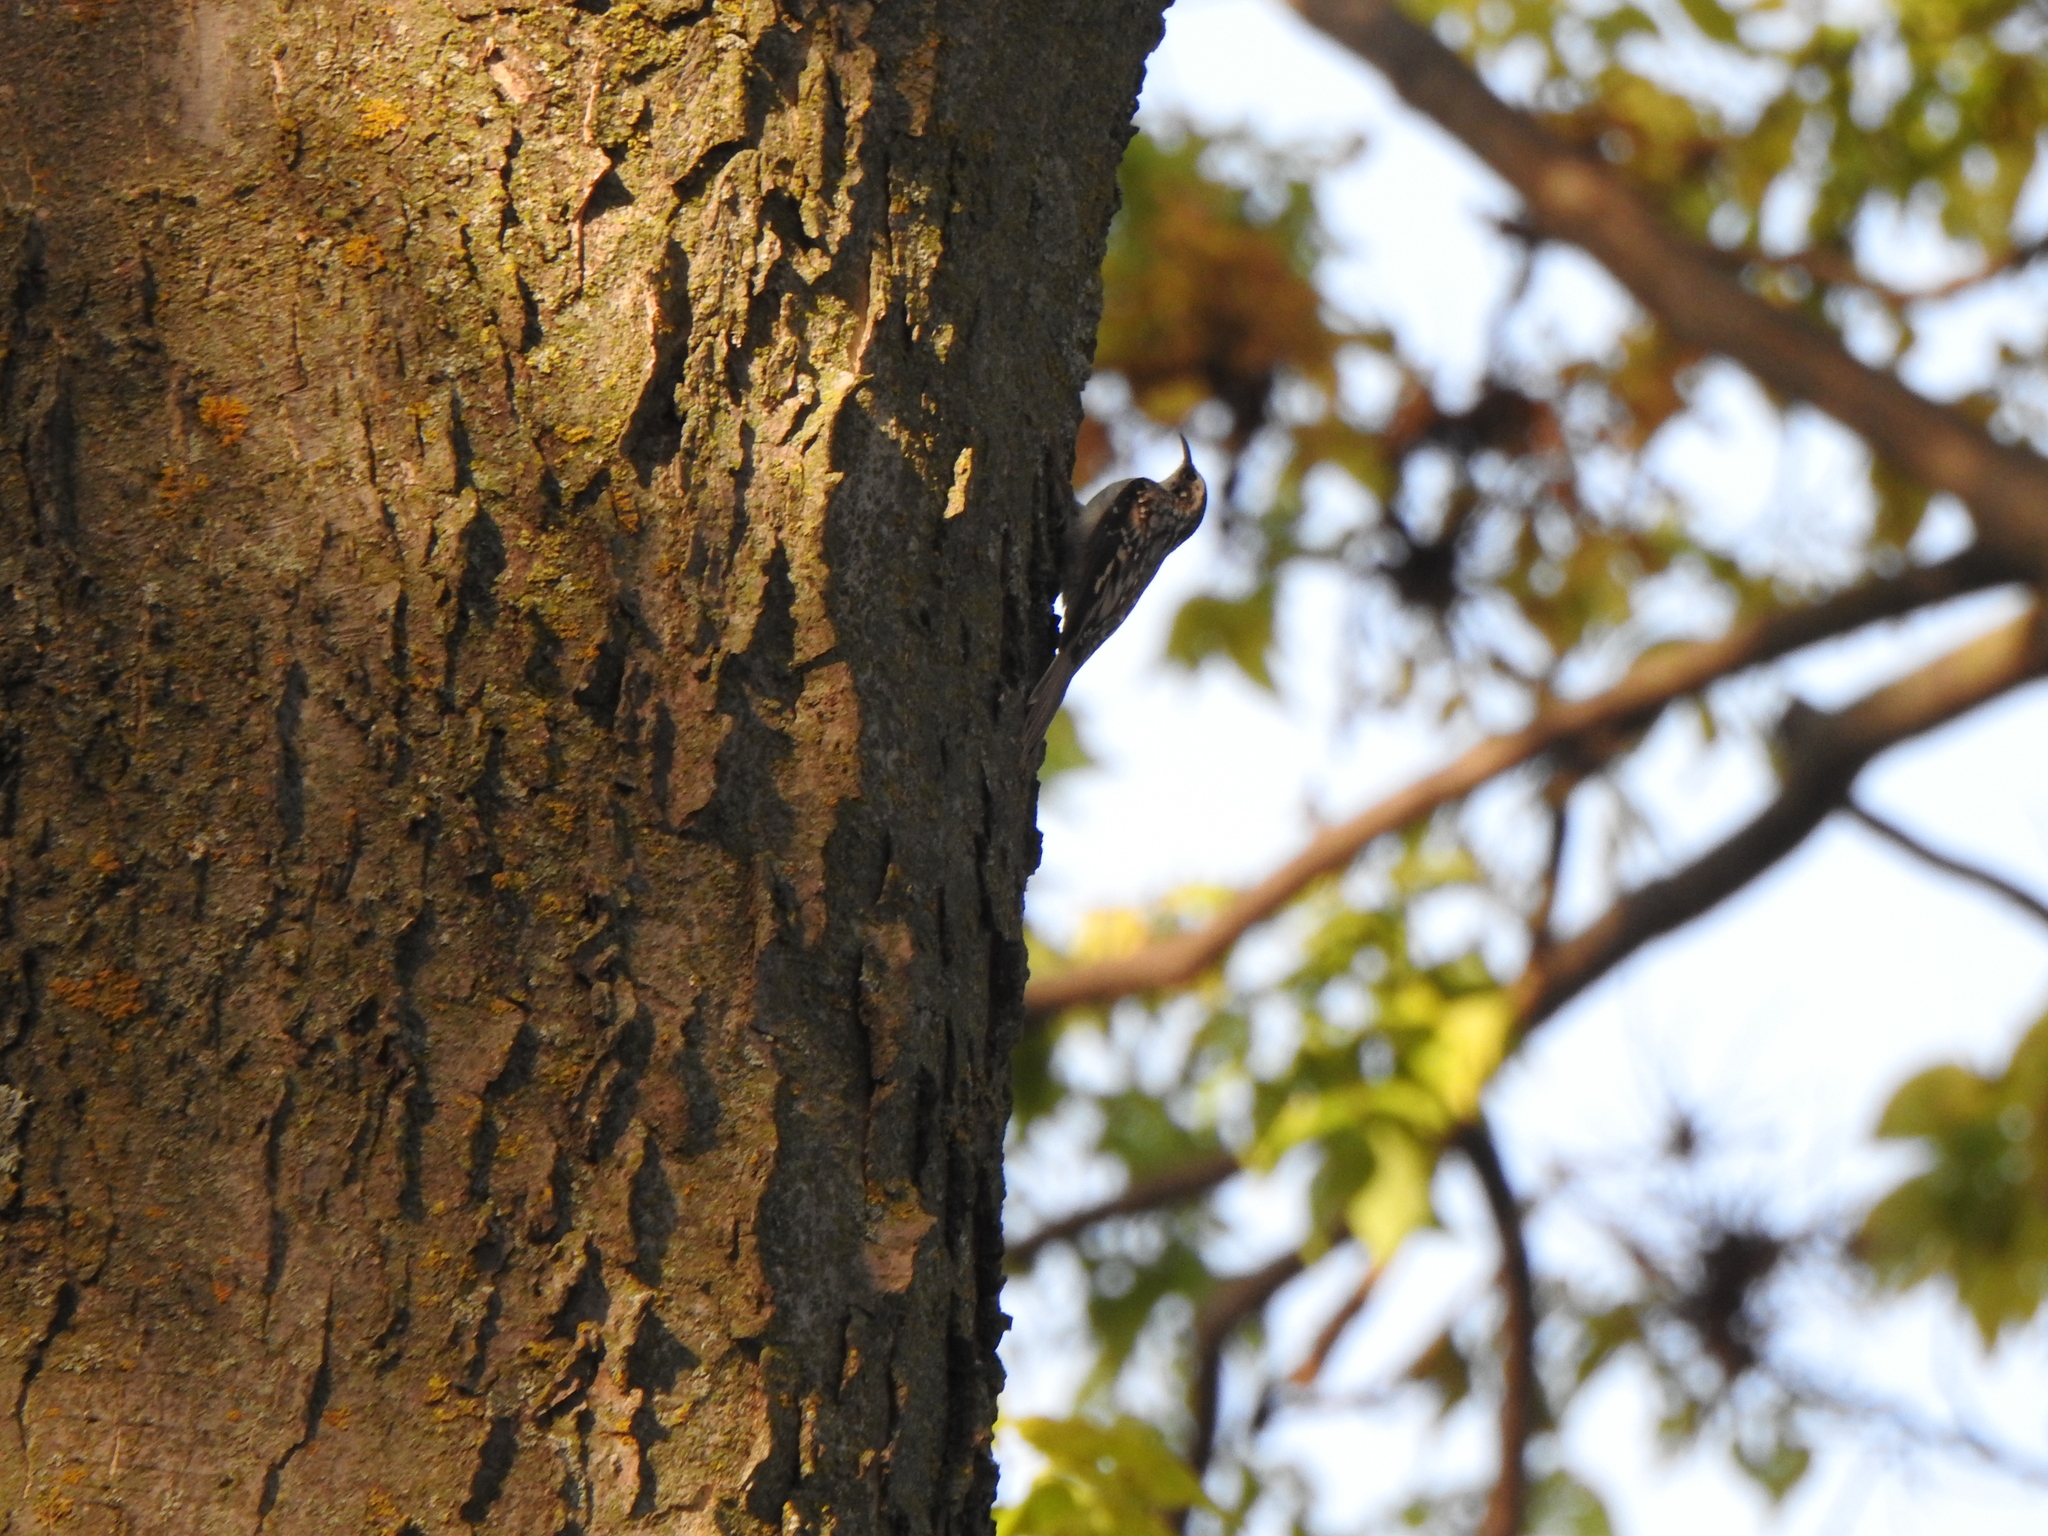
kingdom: Animalia
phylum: Chordata
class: Aves
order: Passeriformes
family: Certhiidae
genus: Certhia
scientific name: Certhia americana
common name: Brown creeper
